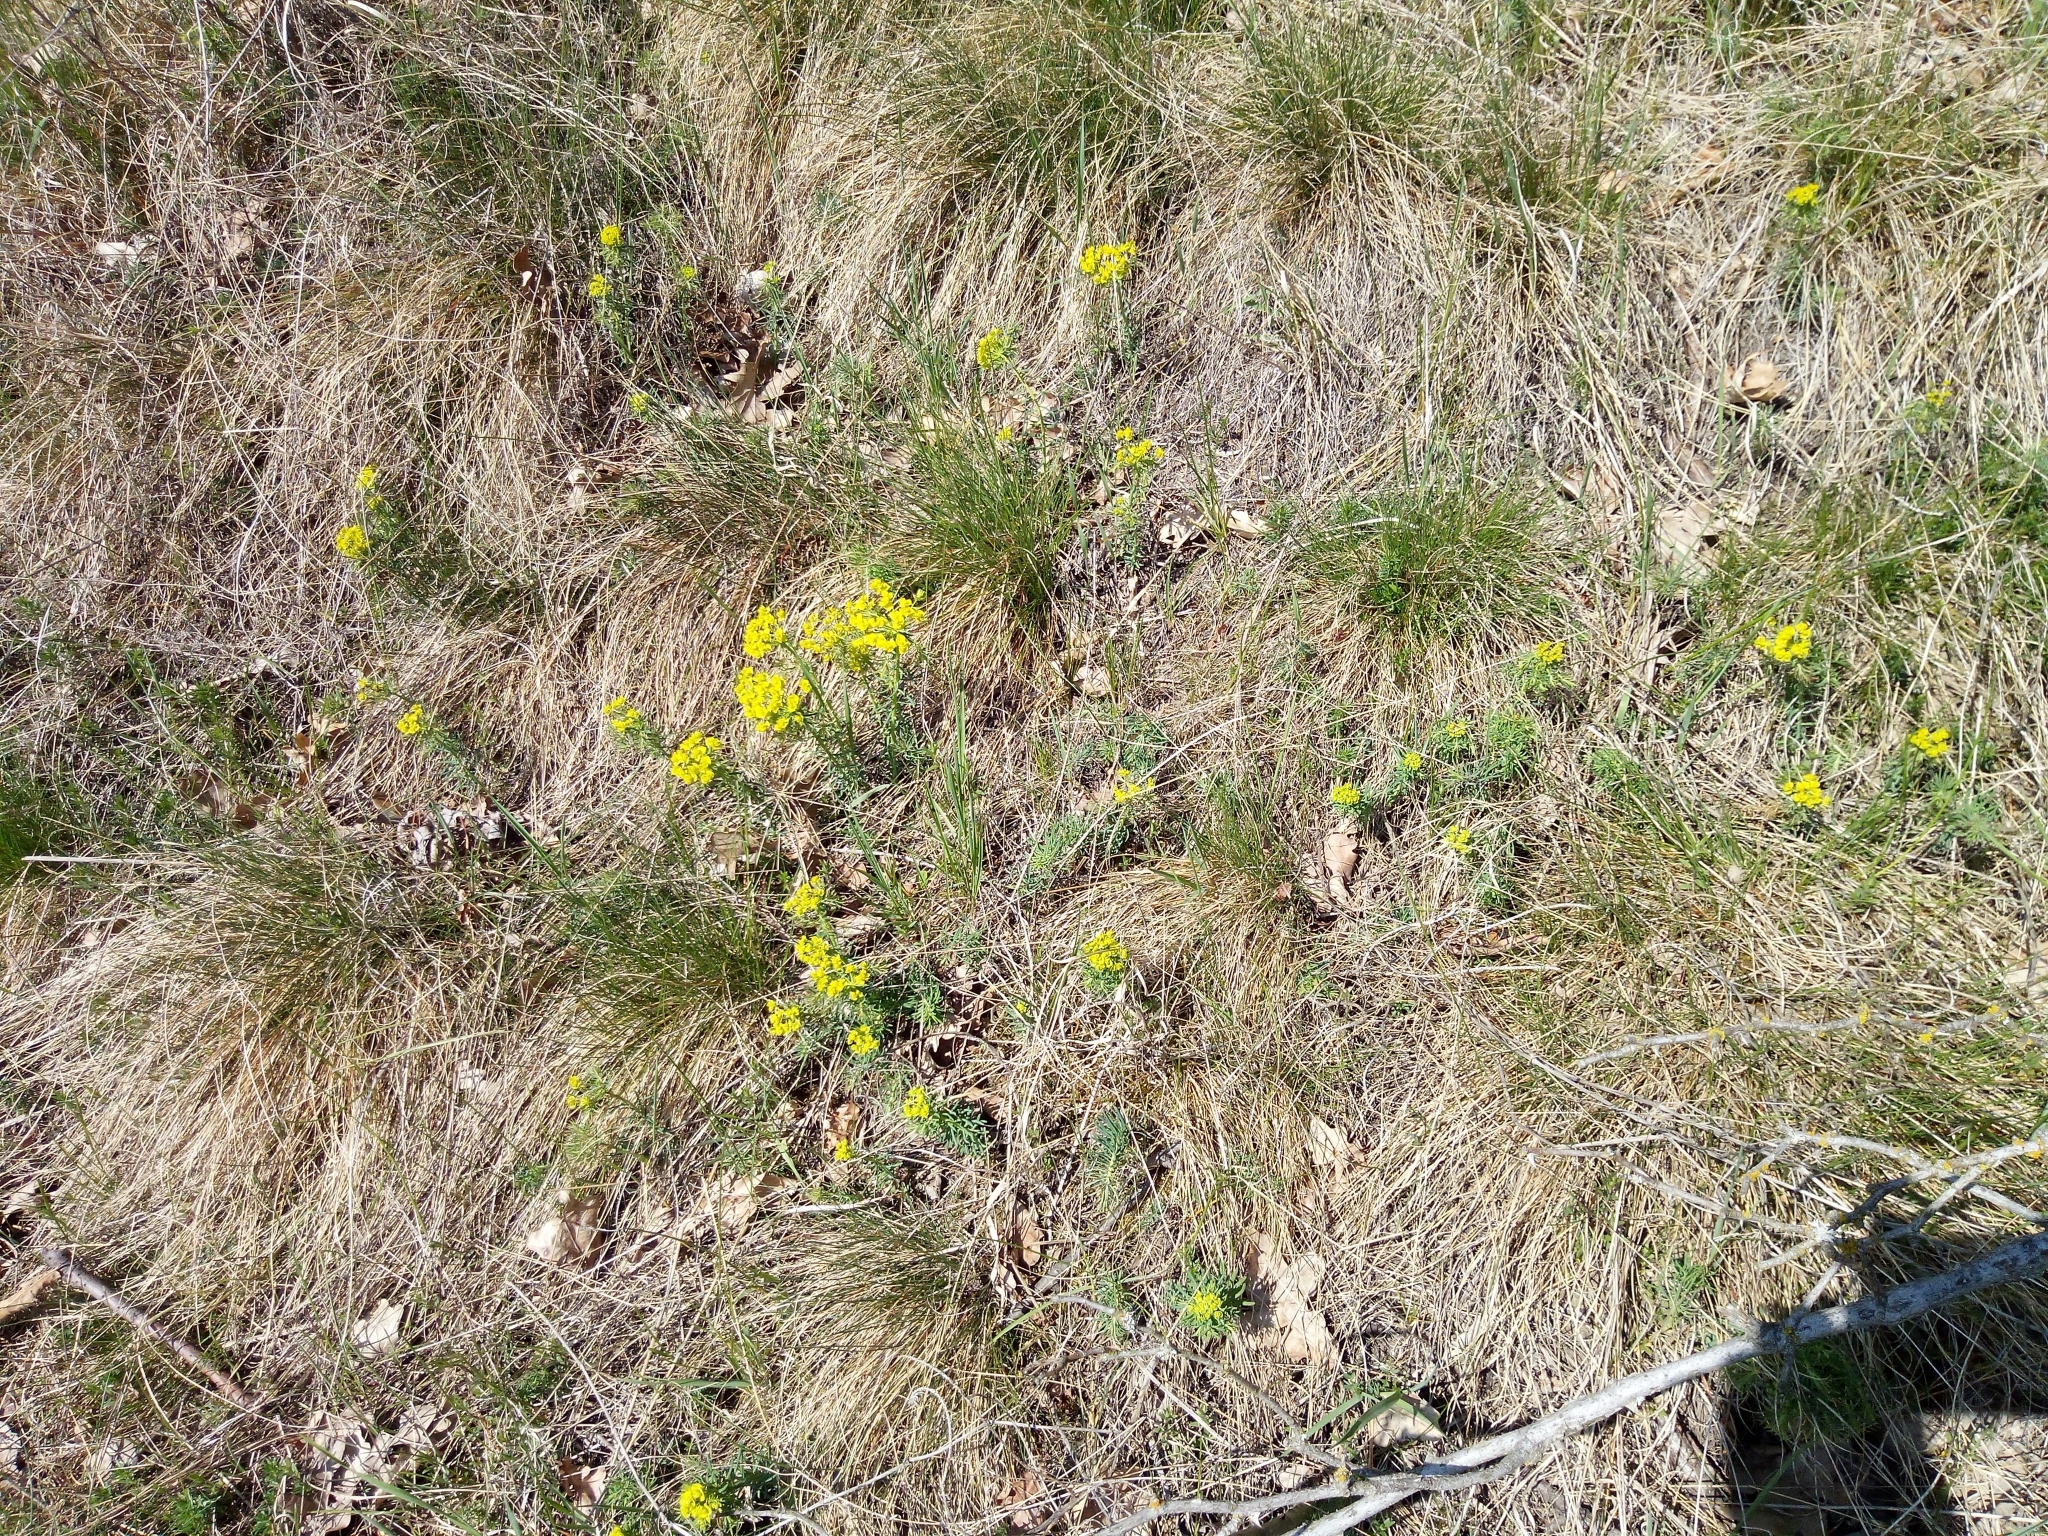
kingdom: Plantae
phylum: Tracheophyta
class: Magnoliopsida
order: Malpighiales
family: Euphorbiaceae
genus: Euphorbia
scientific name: Euphorbia cyparissias
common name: Cypress spurge
